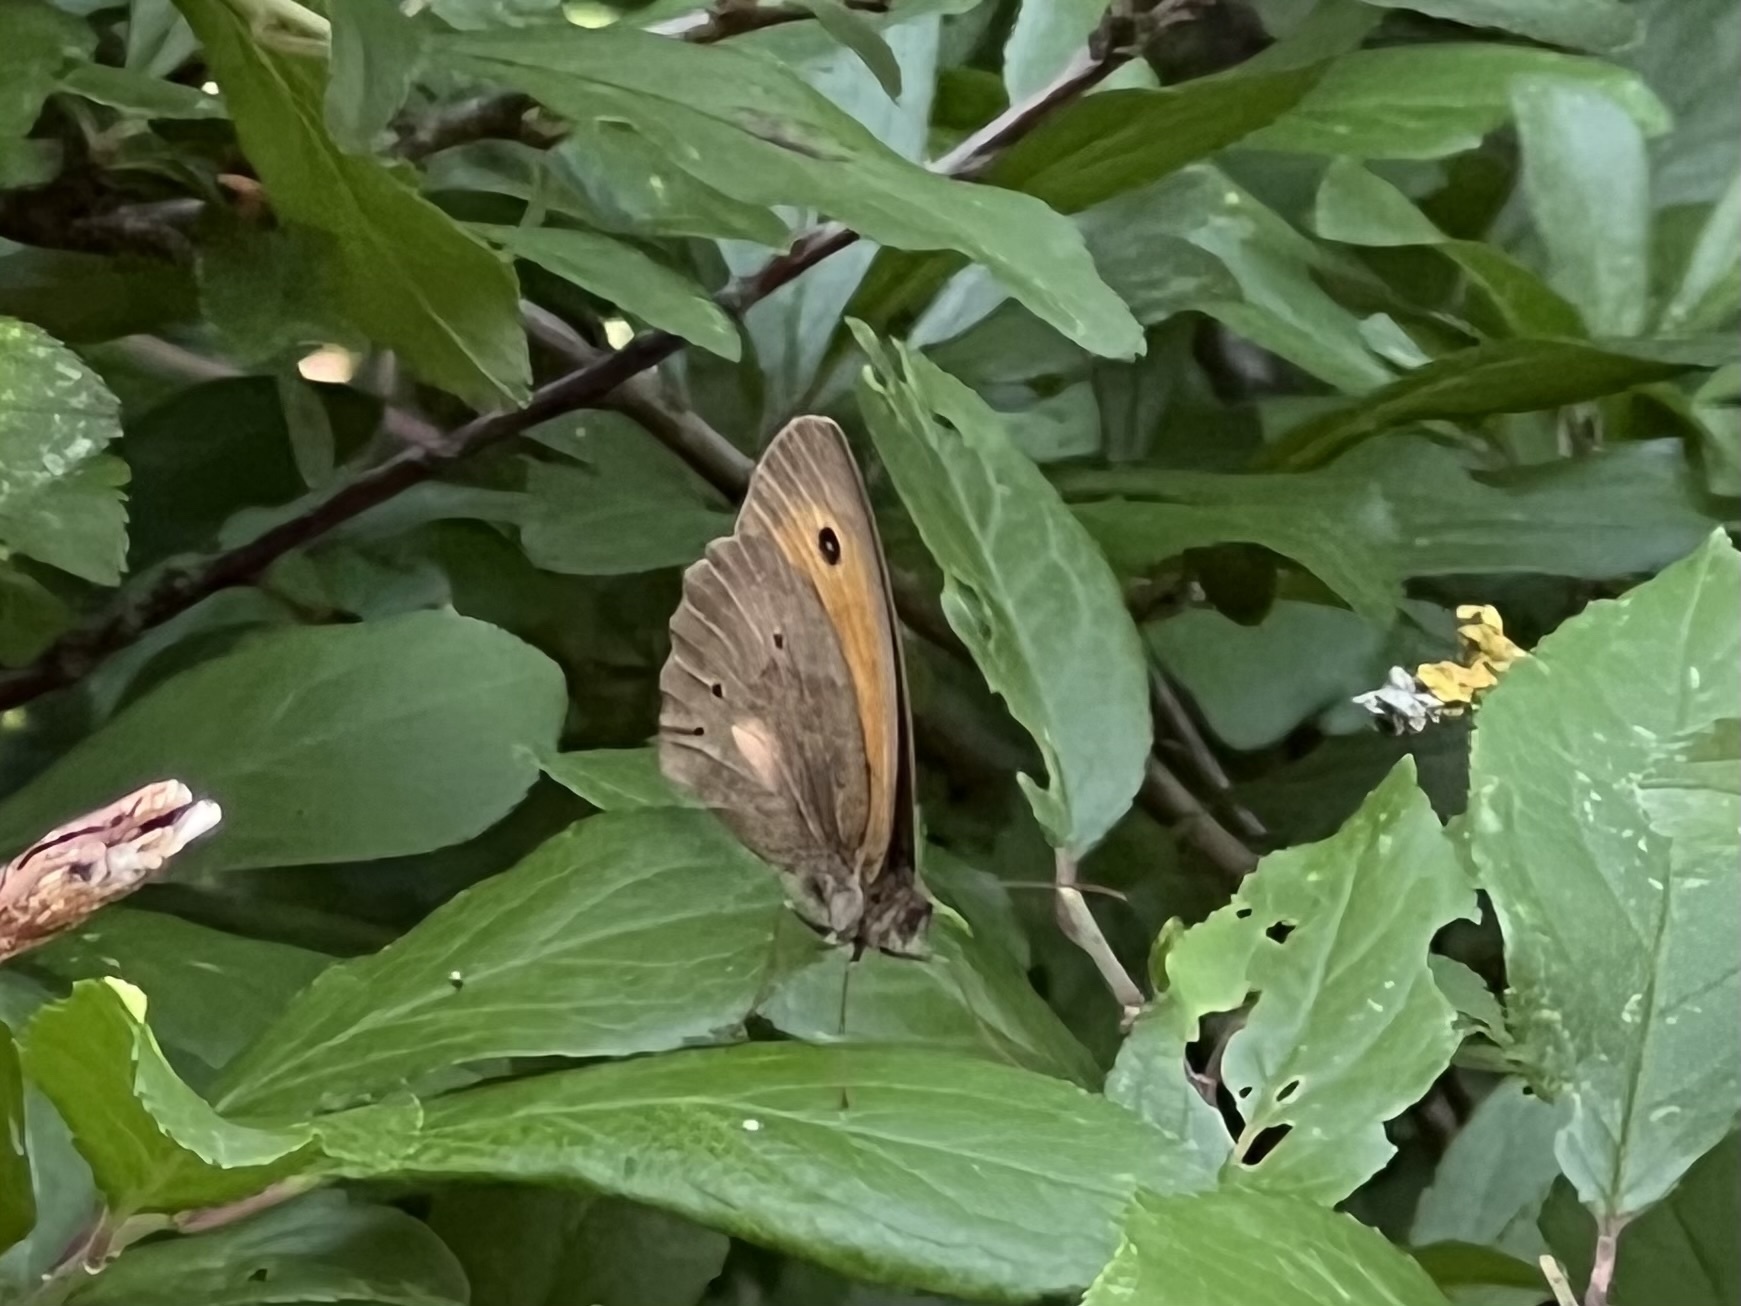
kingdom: Animalia
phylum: Arthropoda
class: Insecta
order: Lepidoptera
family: Nymphalidae
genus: Maniola
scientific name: Maniola jurtina
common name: Meadow brown
